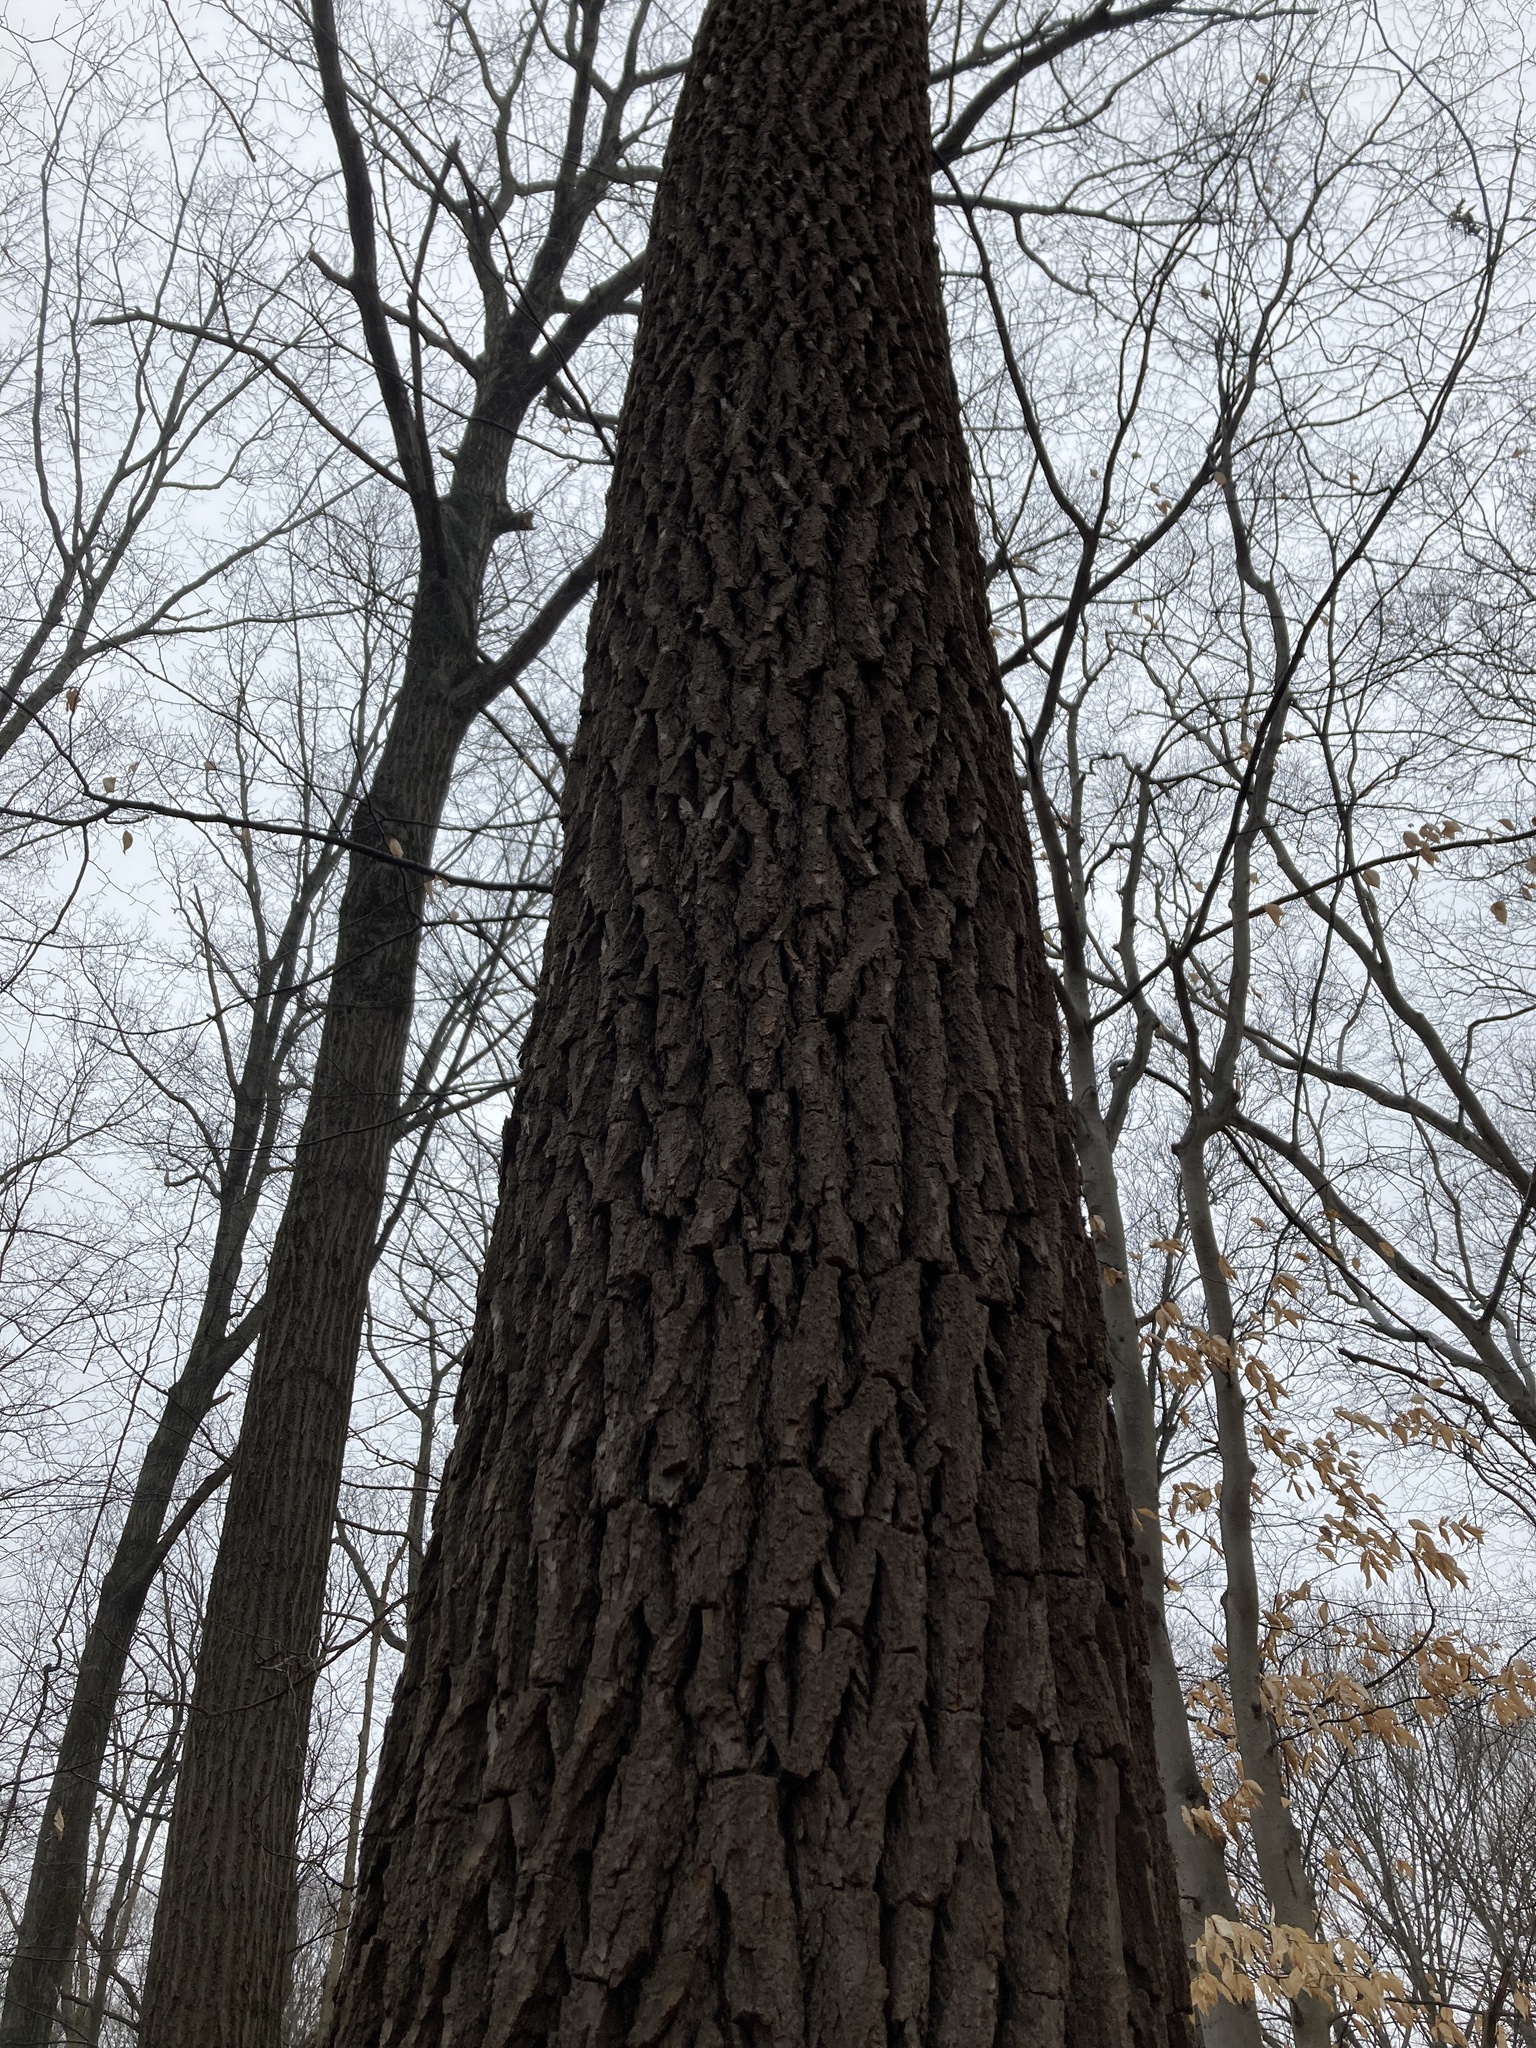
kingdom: Plantae
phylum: Tracheophyta
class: Magnoliopsida
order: Laurales
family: Lauraceae
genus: Sassafras
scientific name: Sassafras albidum
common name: Sassafras
